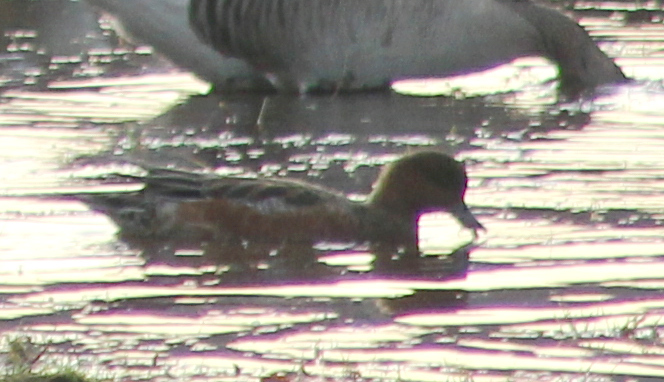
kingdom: Animalia
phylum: Chordata
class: Aves
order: Anseriformes
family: Anatidae
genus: Mareca
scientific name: Mareca penelope
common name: Eurasian wigeon
